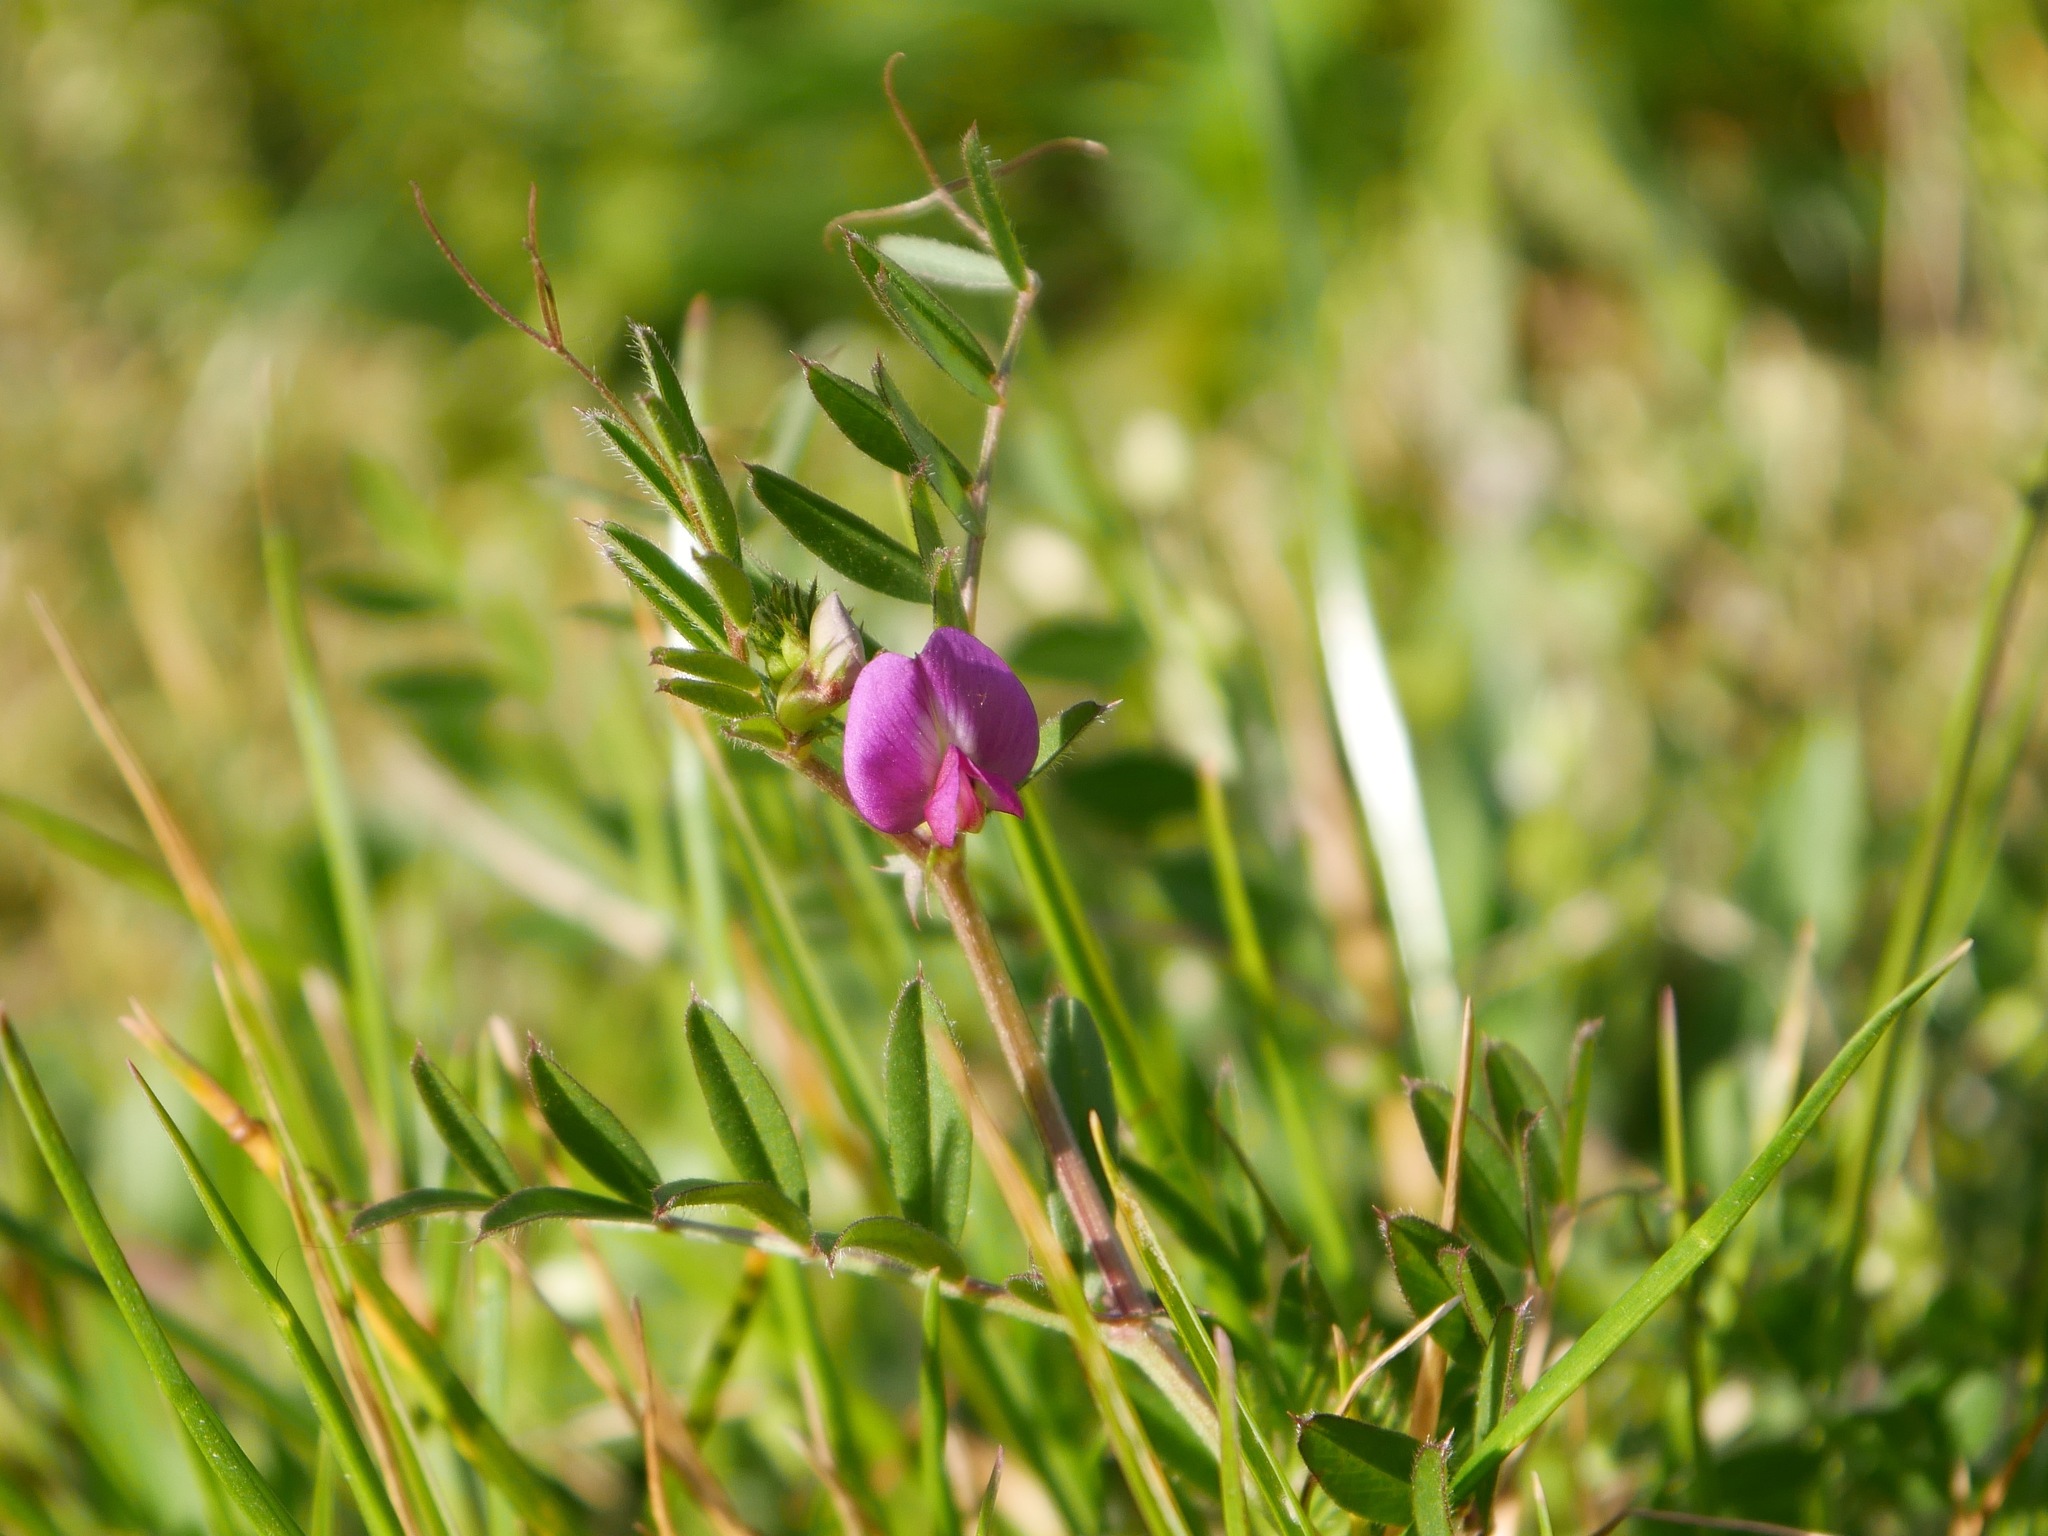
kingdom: Plantae
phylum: Tracheophyta
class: Magnoliopsida
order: Fabales
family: Fabaceae
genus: Vicia
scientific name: Vicia sativa
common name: Garden vetch
